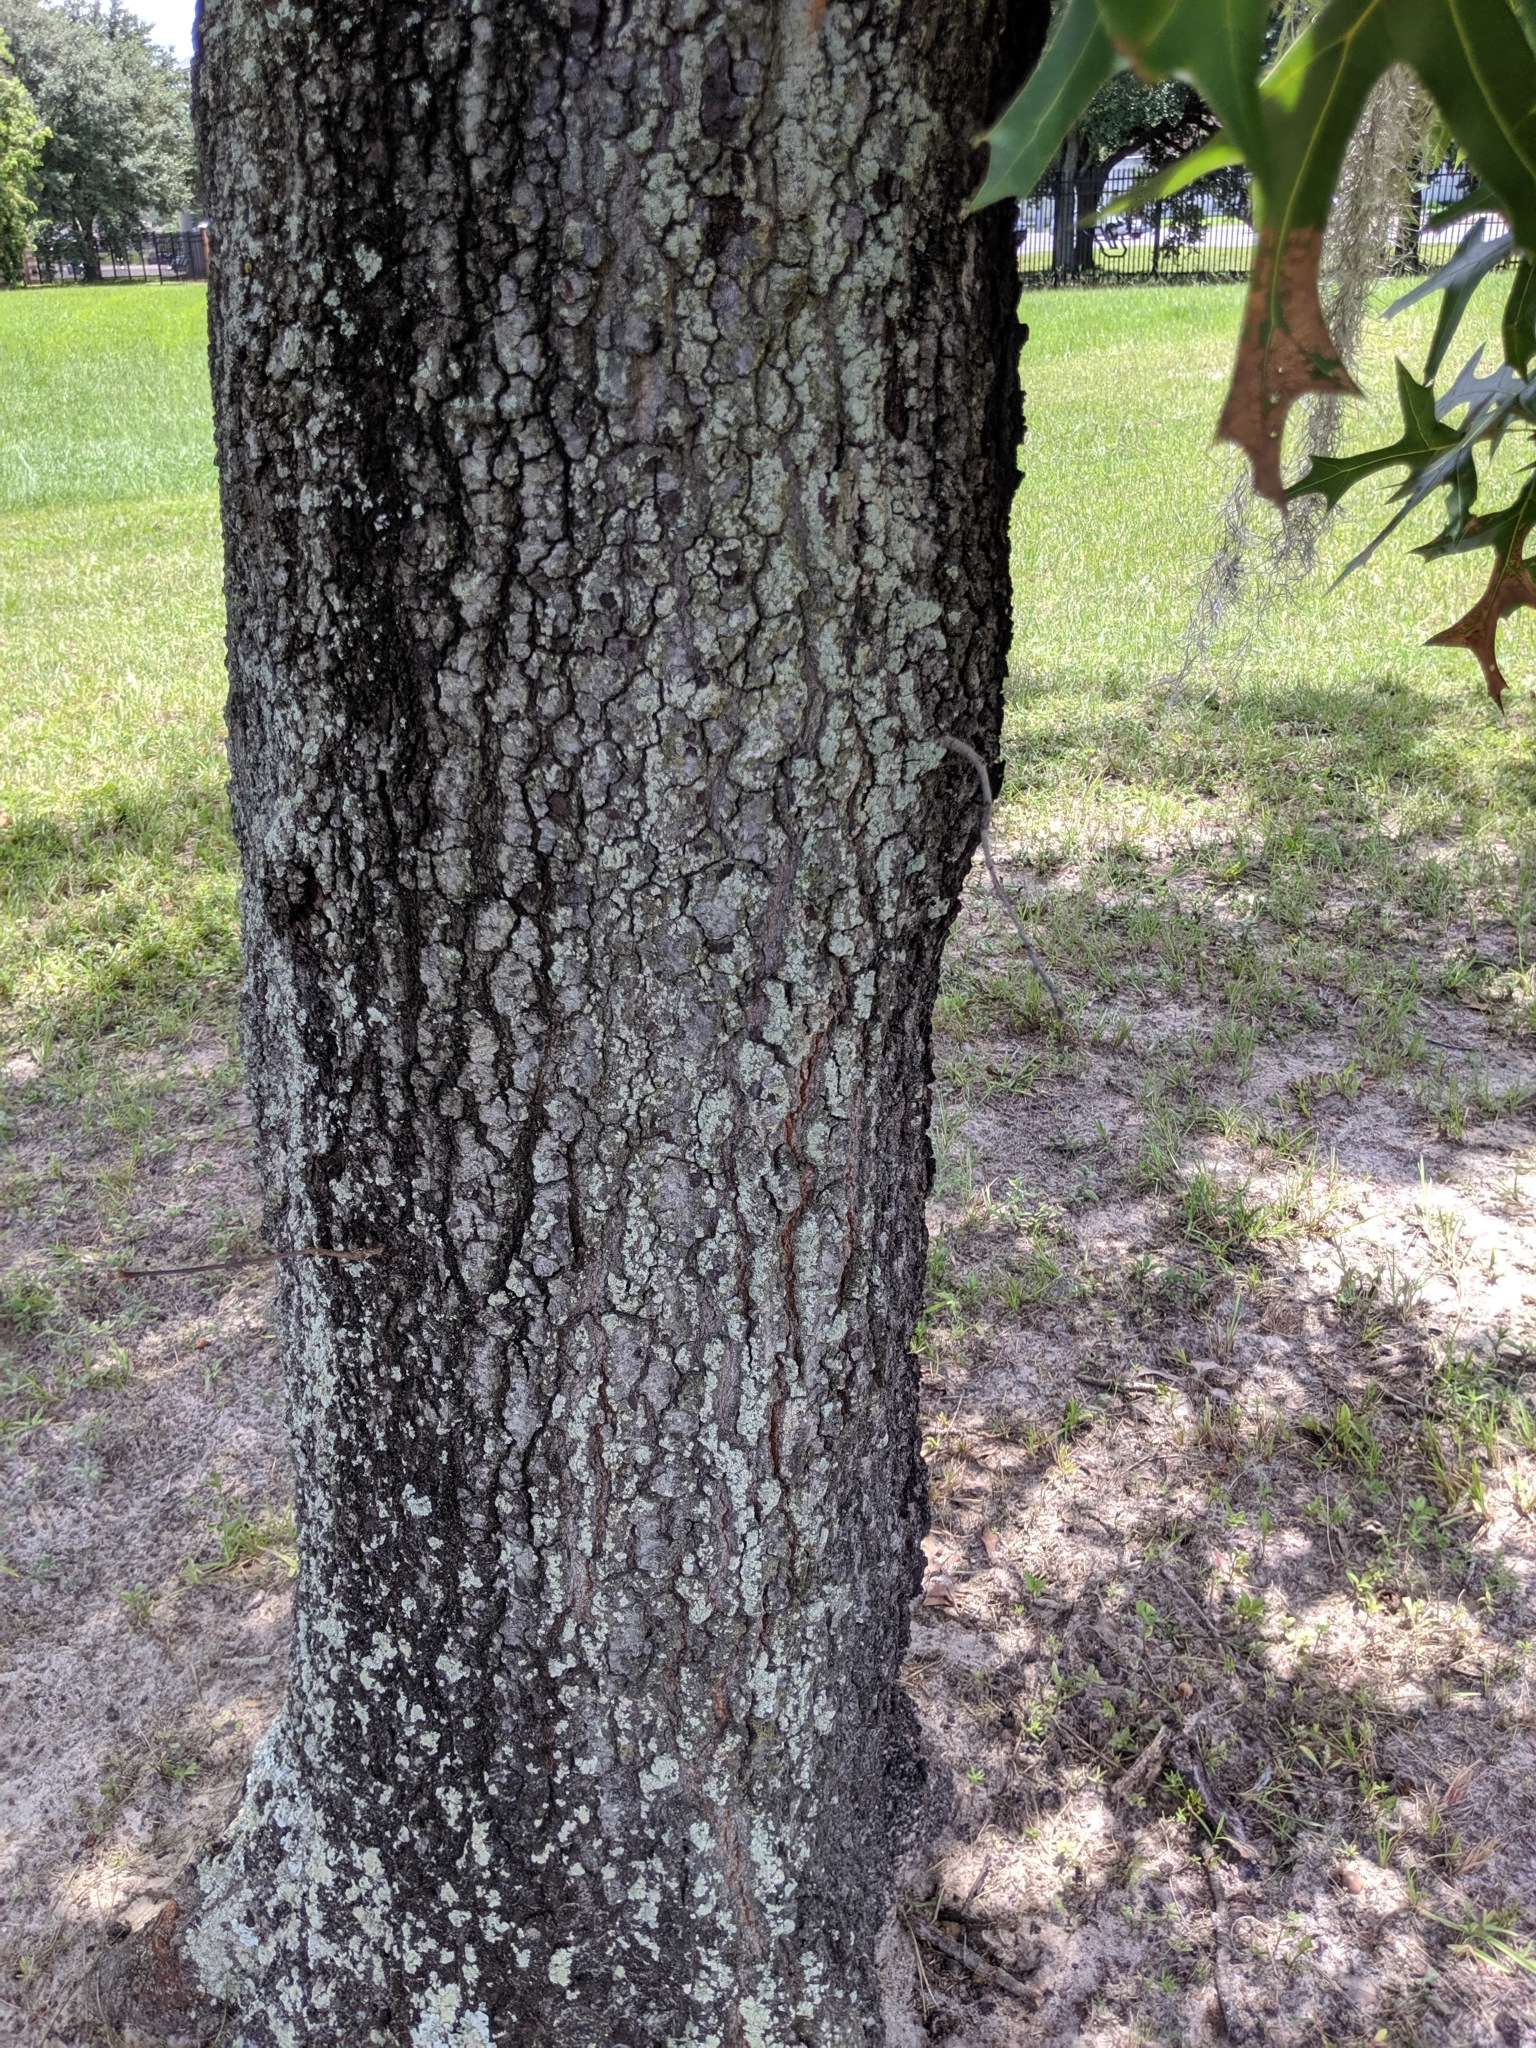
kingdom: Plantae
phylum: Tracheophyta
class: Magnoliopsida
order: Fagales
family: Fagaceae
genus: Quercus
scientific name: Quercus laevis
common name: Turkey oak
